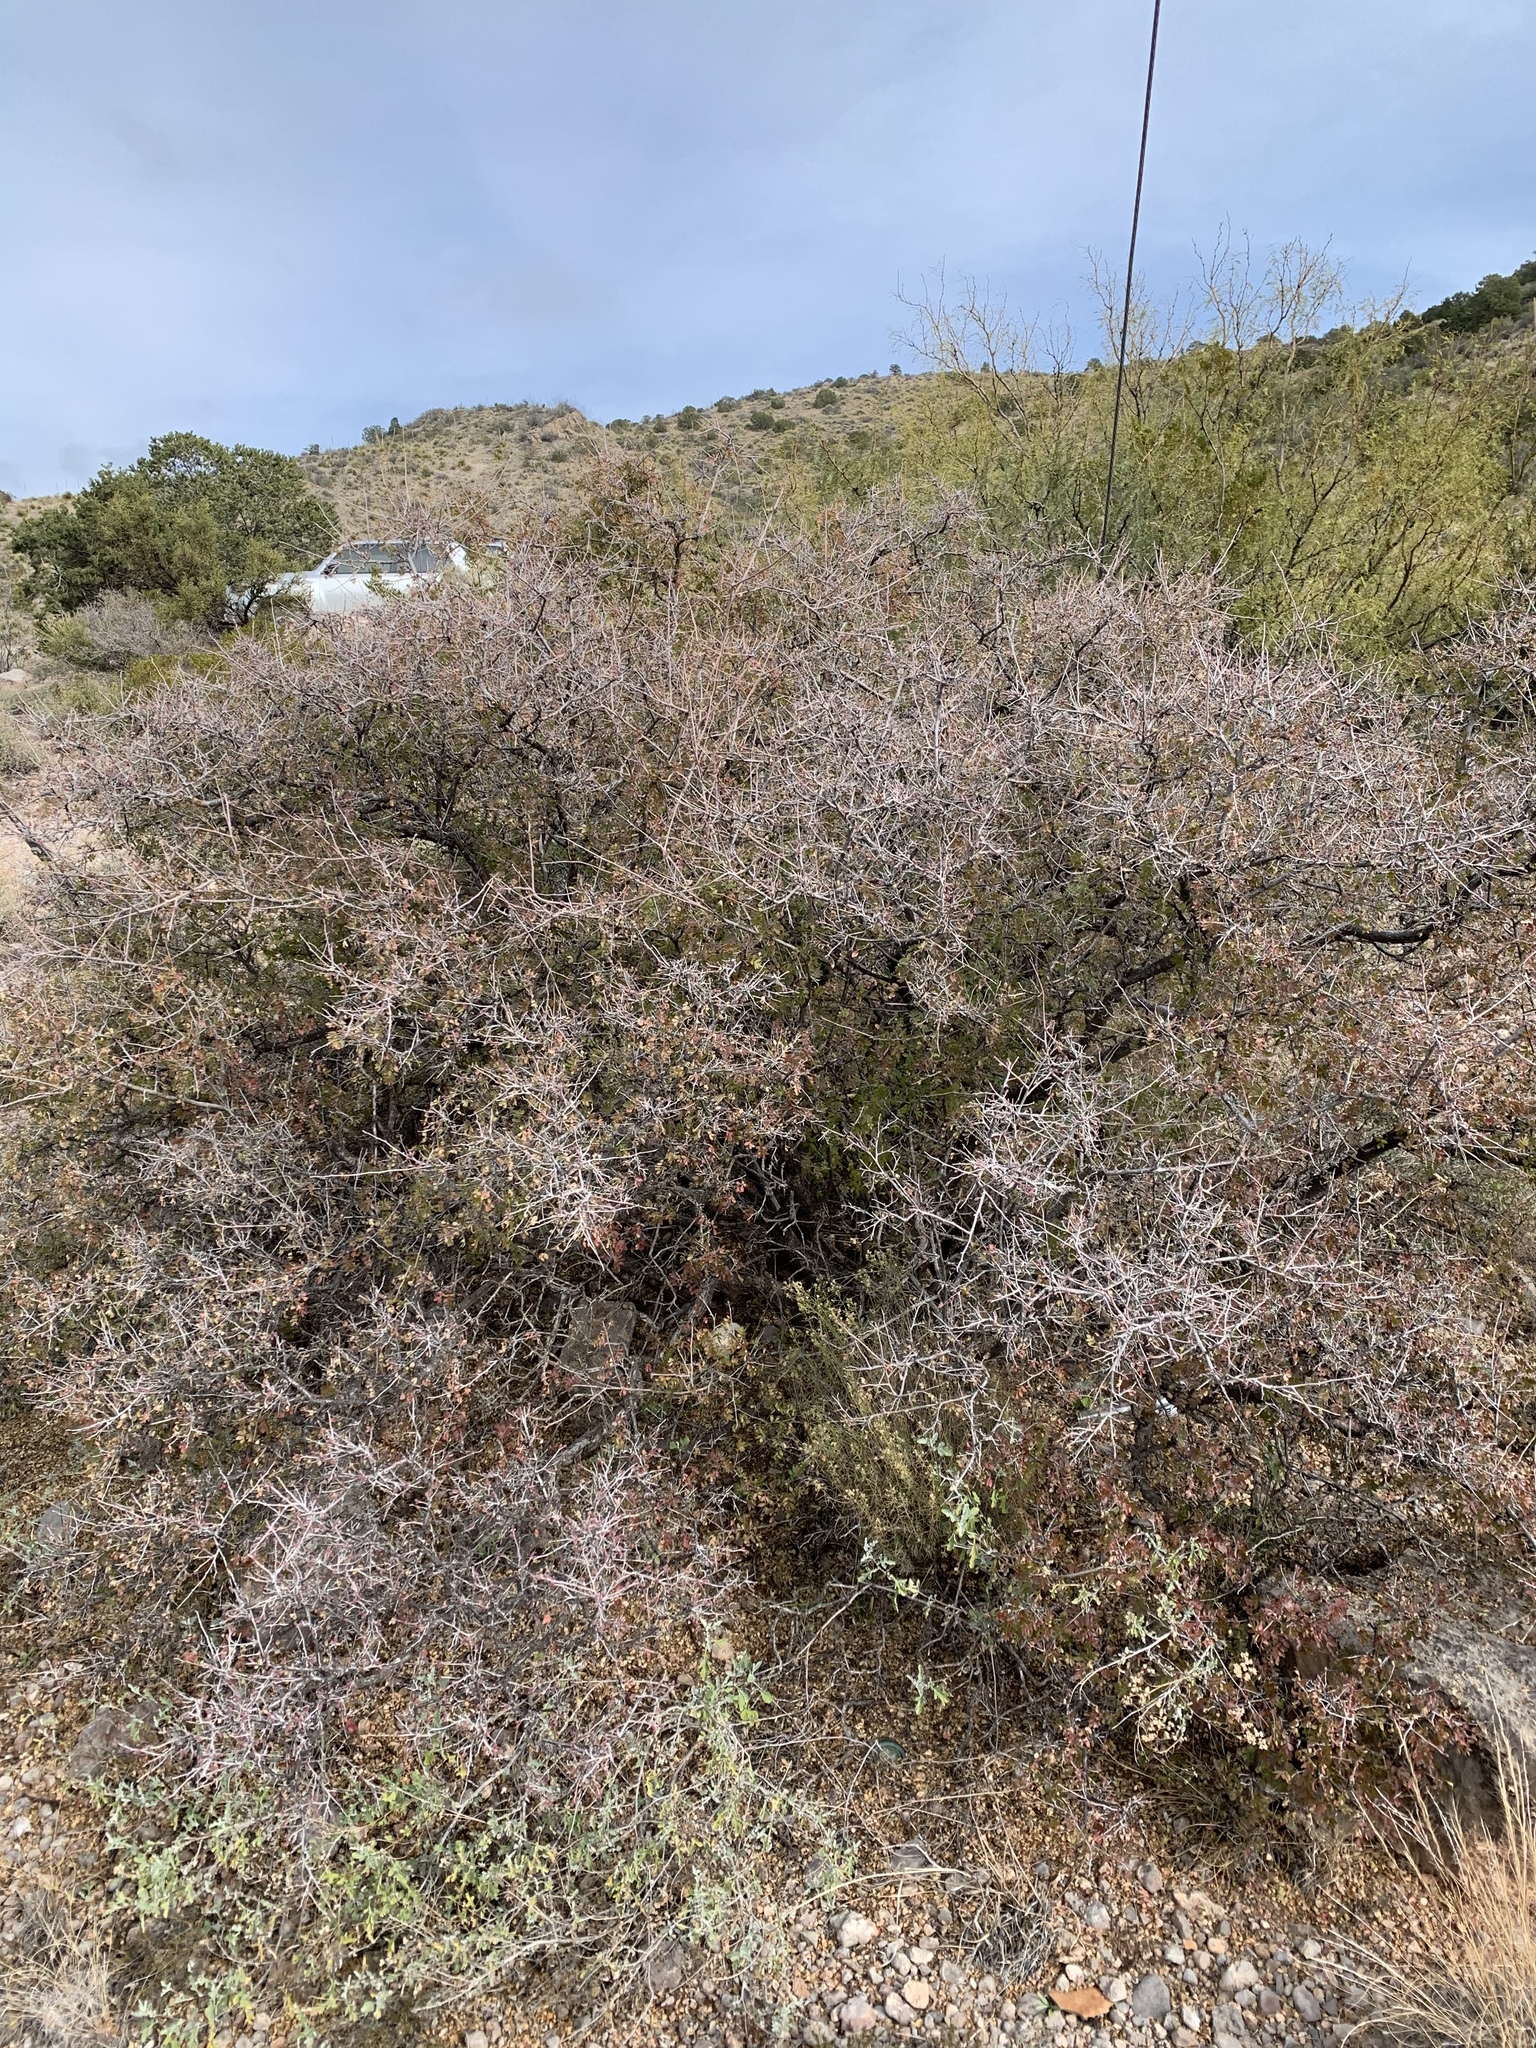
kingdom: Plantae
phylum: Tracheophyta
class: Magnoliopsida
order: Sapindales
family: Anacardiaceae
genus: Rhus
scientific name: Rhus microphylla
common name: Desert sumac
